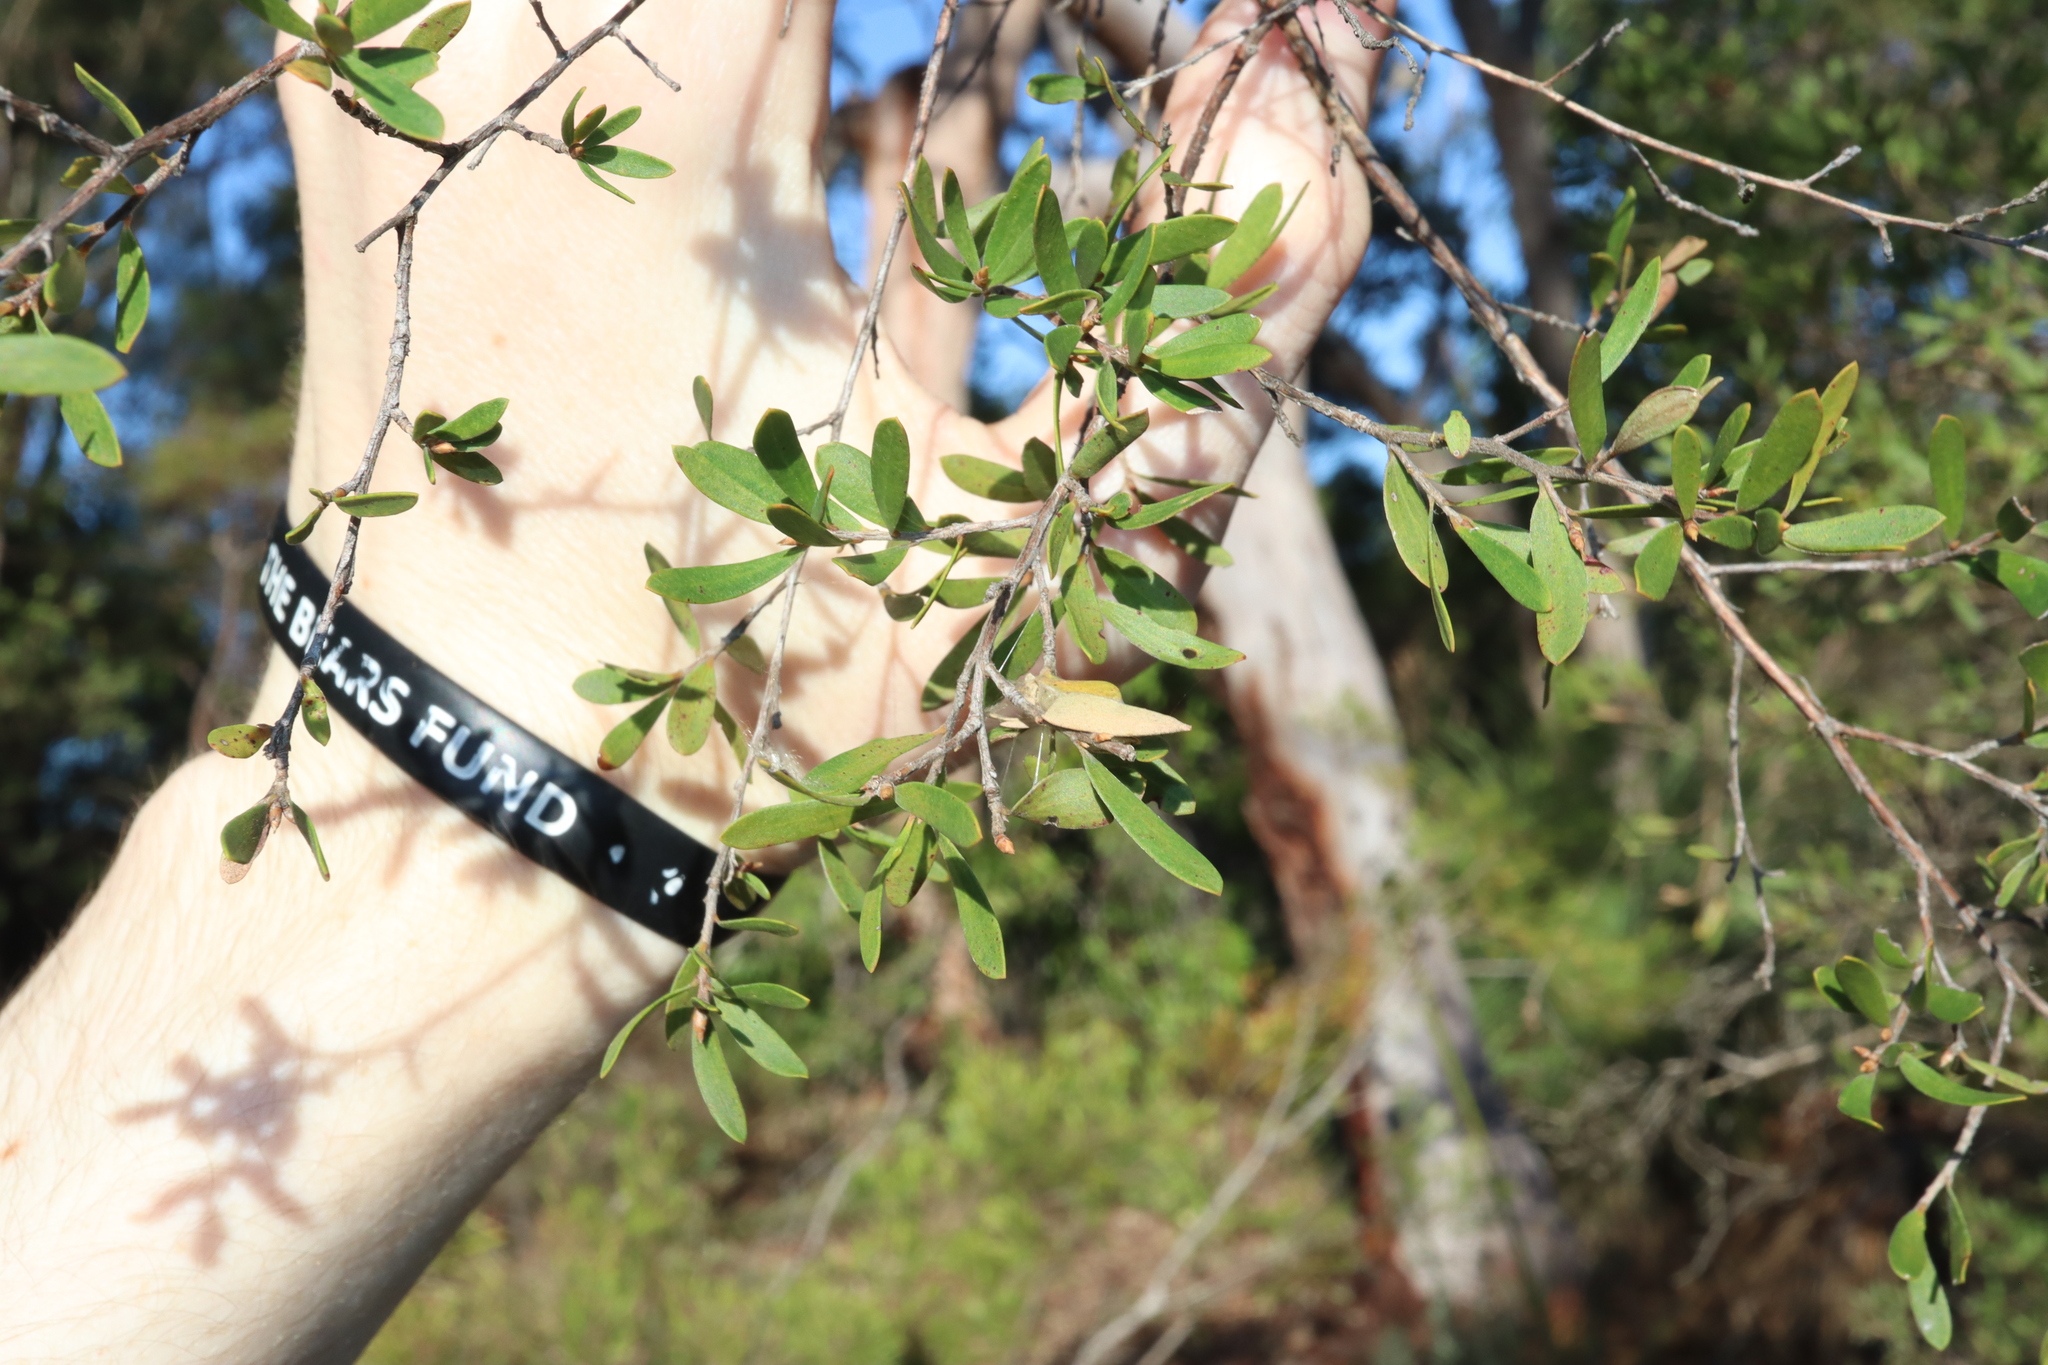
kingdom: Plantae
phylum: Tracheophyta
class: Magnoliopsida
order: Myrtales
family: Myrtaceae
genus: Leptospermum
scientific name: Leptospermum trinervium
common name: Flaky-barked tea-tree
